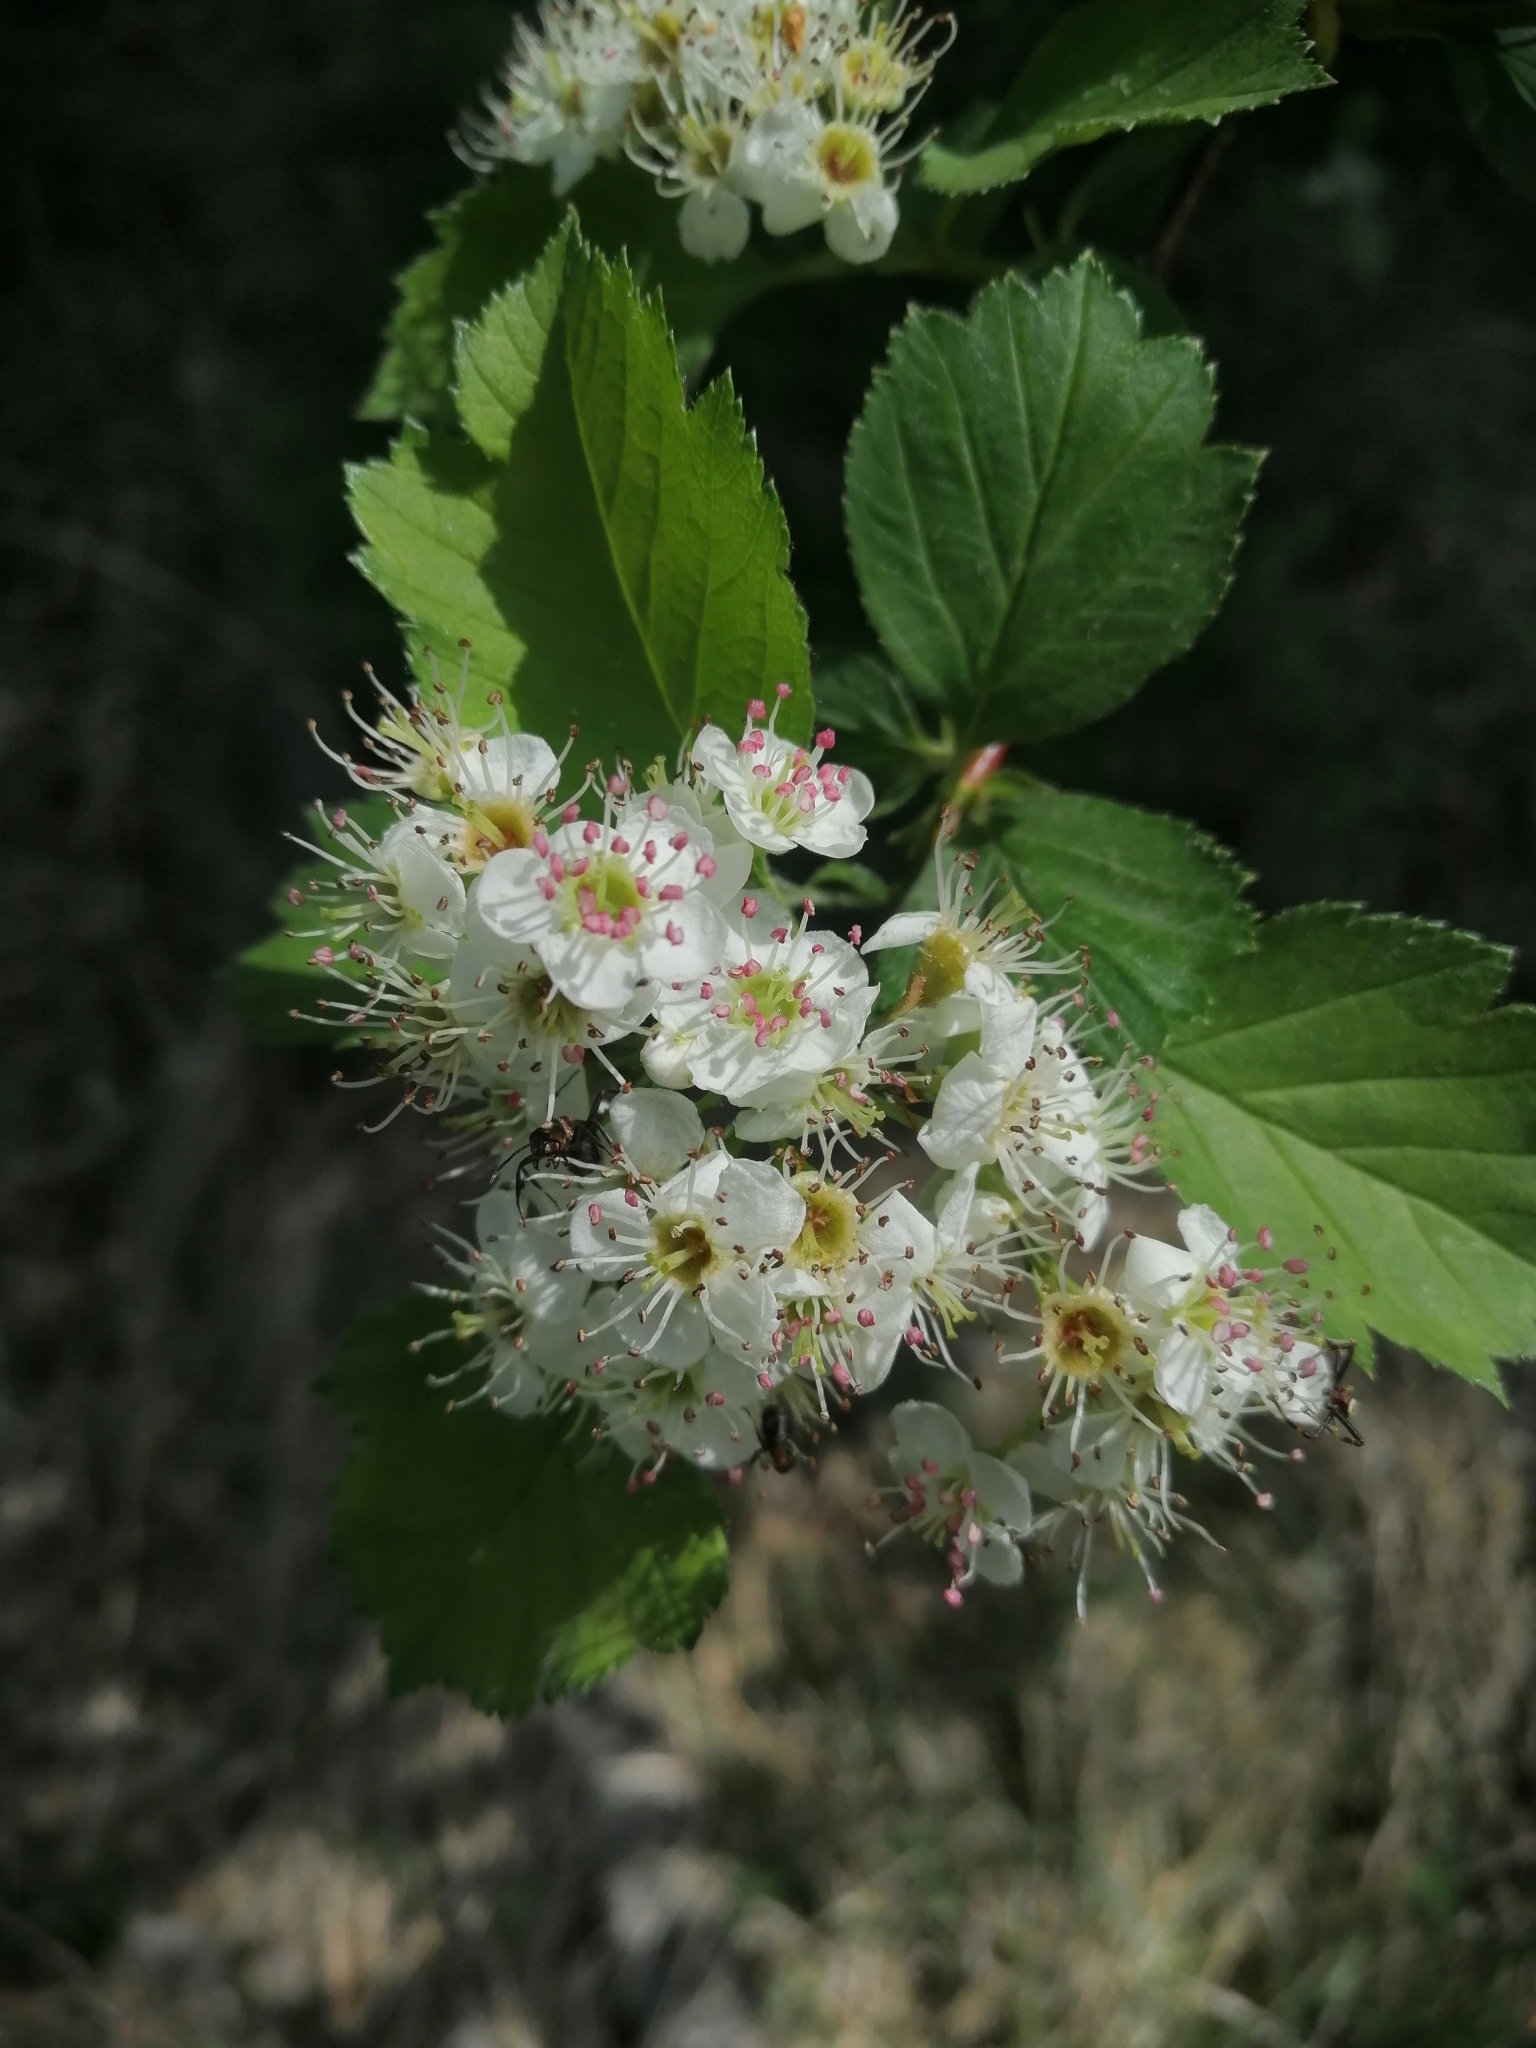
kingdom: Plantae
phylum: Tracheophyta
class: Magnoliopsida
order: Rosales
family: Rosaceae
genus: Crataegus
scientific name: Crataegus sanguinea
